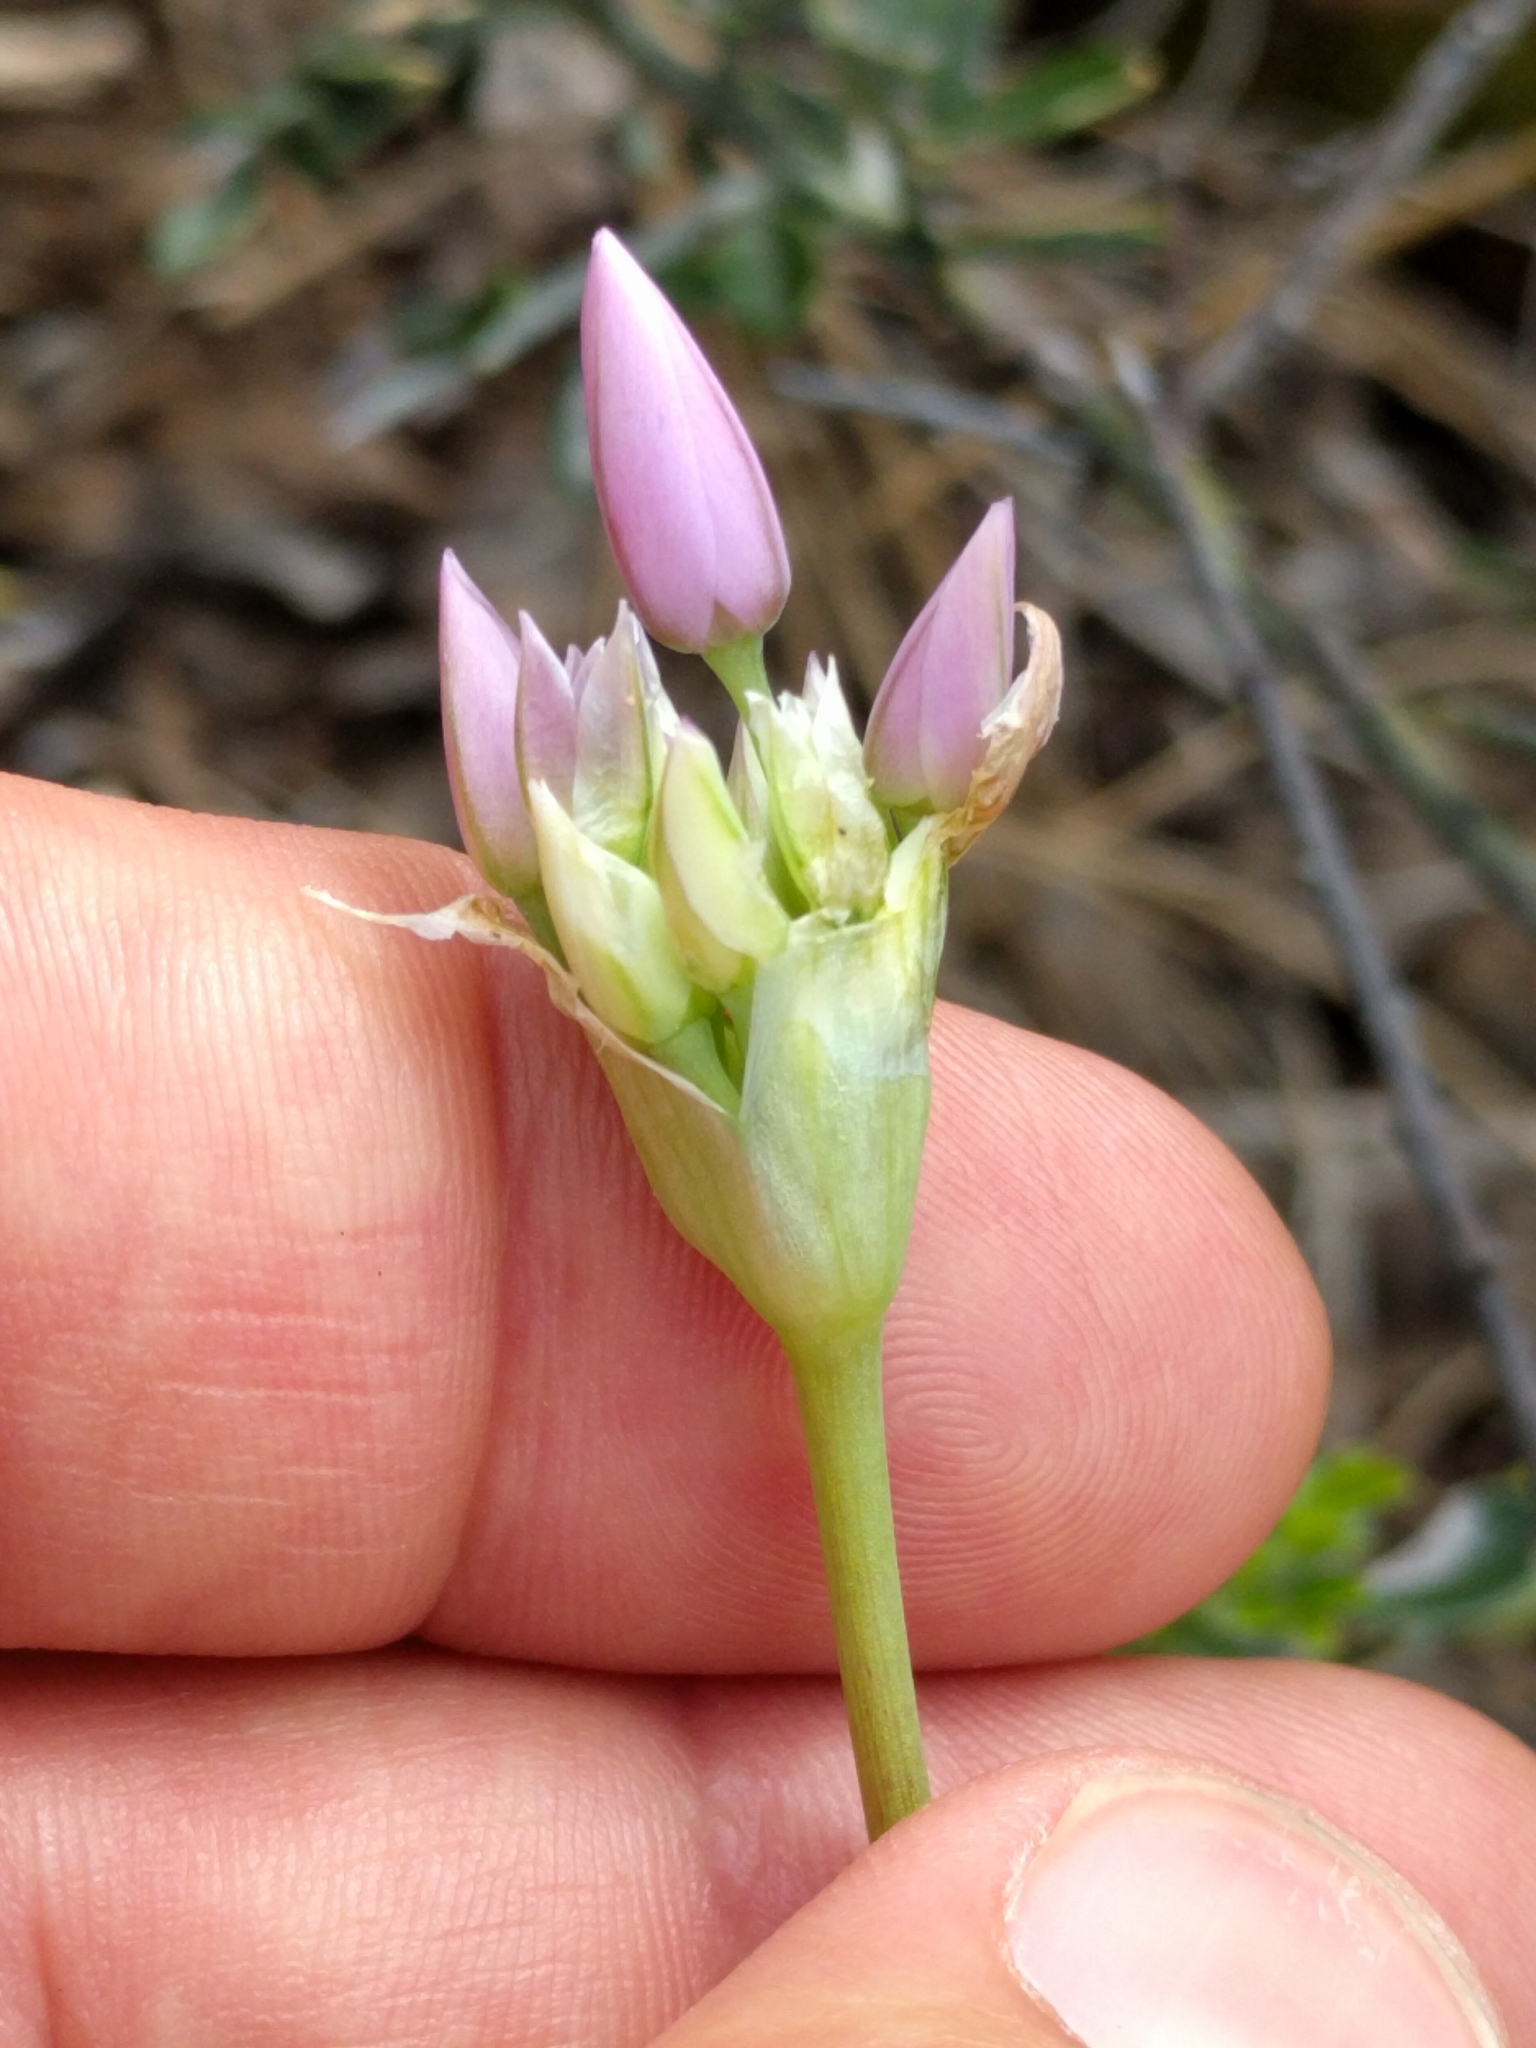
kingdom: Plantae
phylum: Tracheophyta
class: Liliopsida
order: Asparagales
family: Amaryllidaceae
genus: Allium
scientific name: Allium unifolium
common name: American garlic
